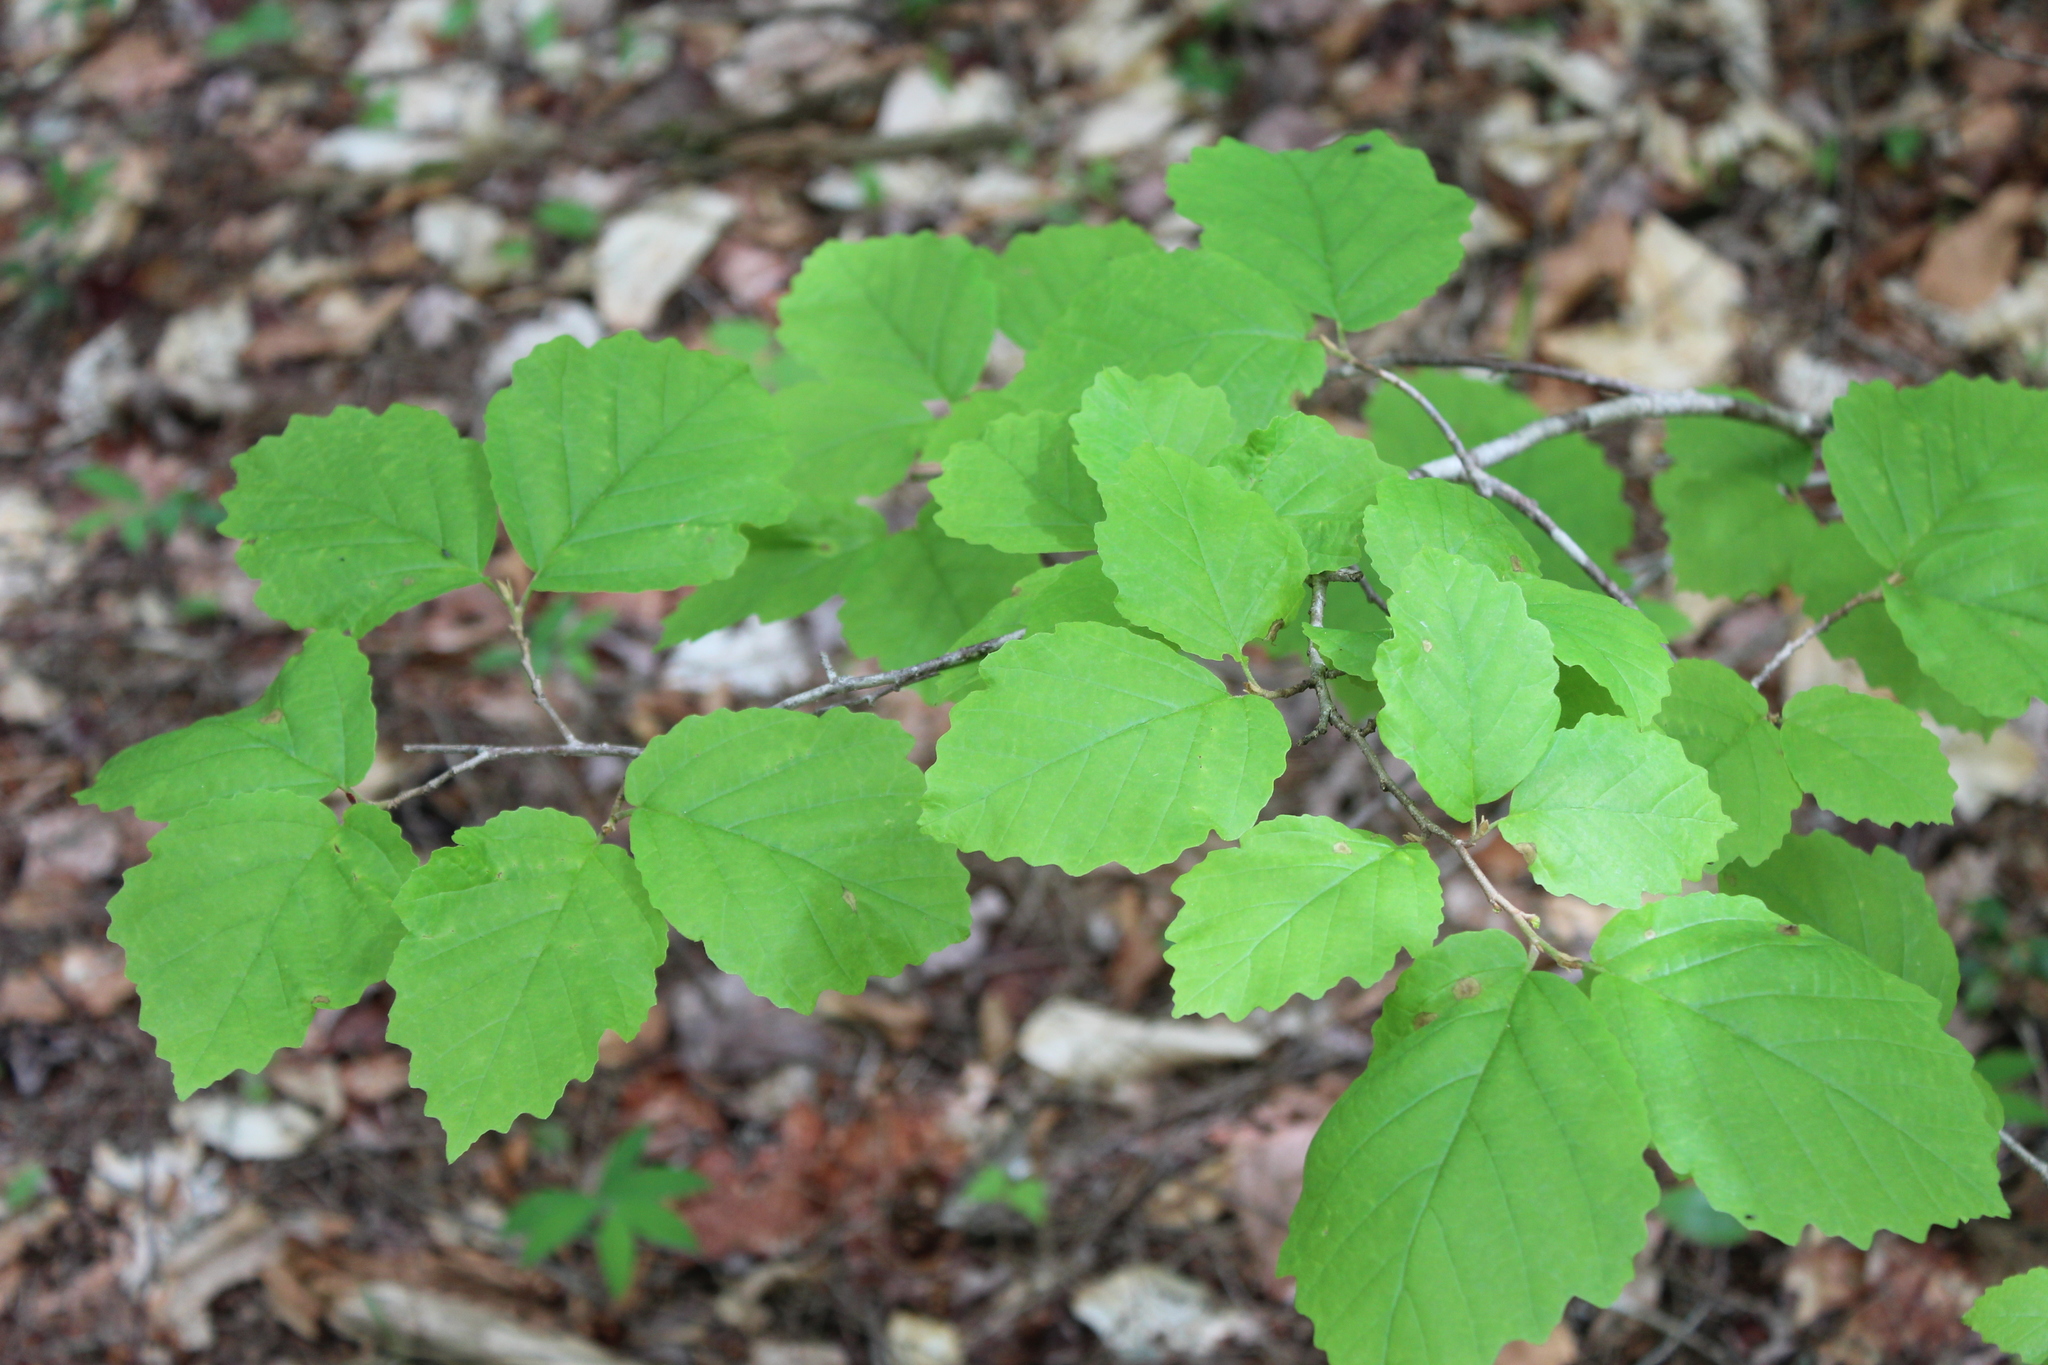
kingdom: Plantae
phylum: Tracheophyta
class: Magnoliopsida
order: Saxifragales
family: Hamamelidaceae
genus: Hamamelis
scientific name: Hamamelis virginiana
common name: Witch-hazel
